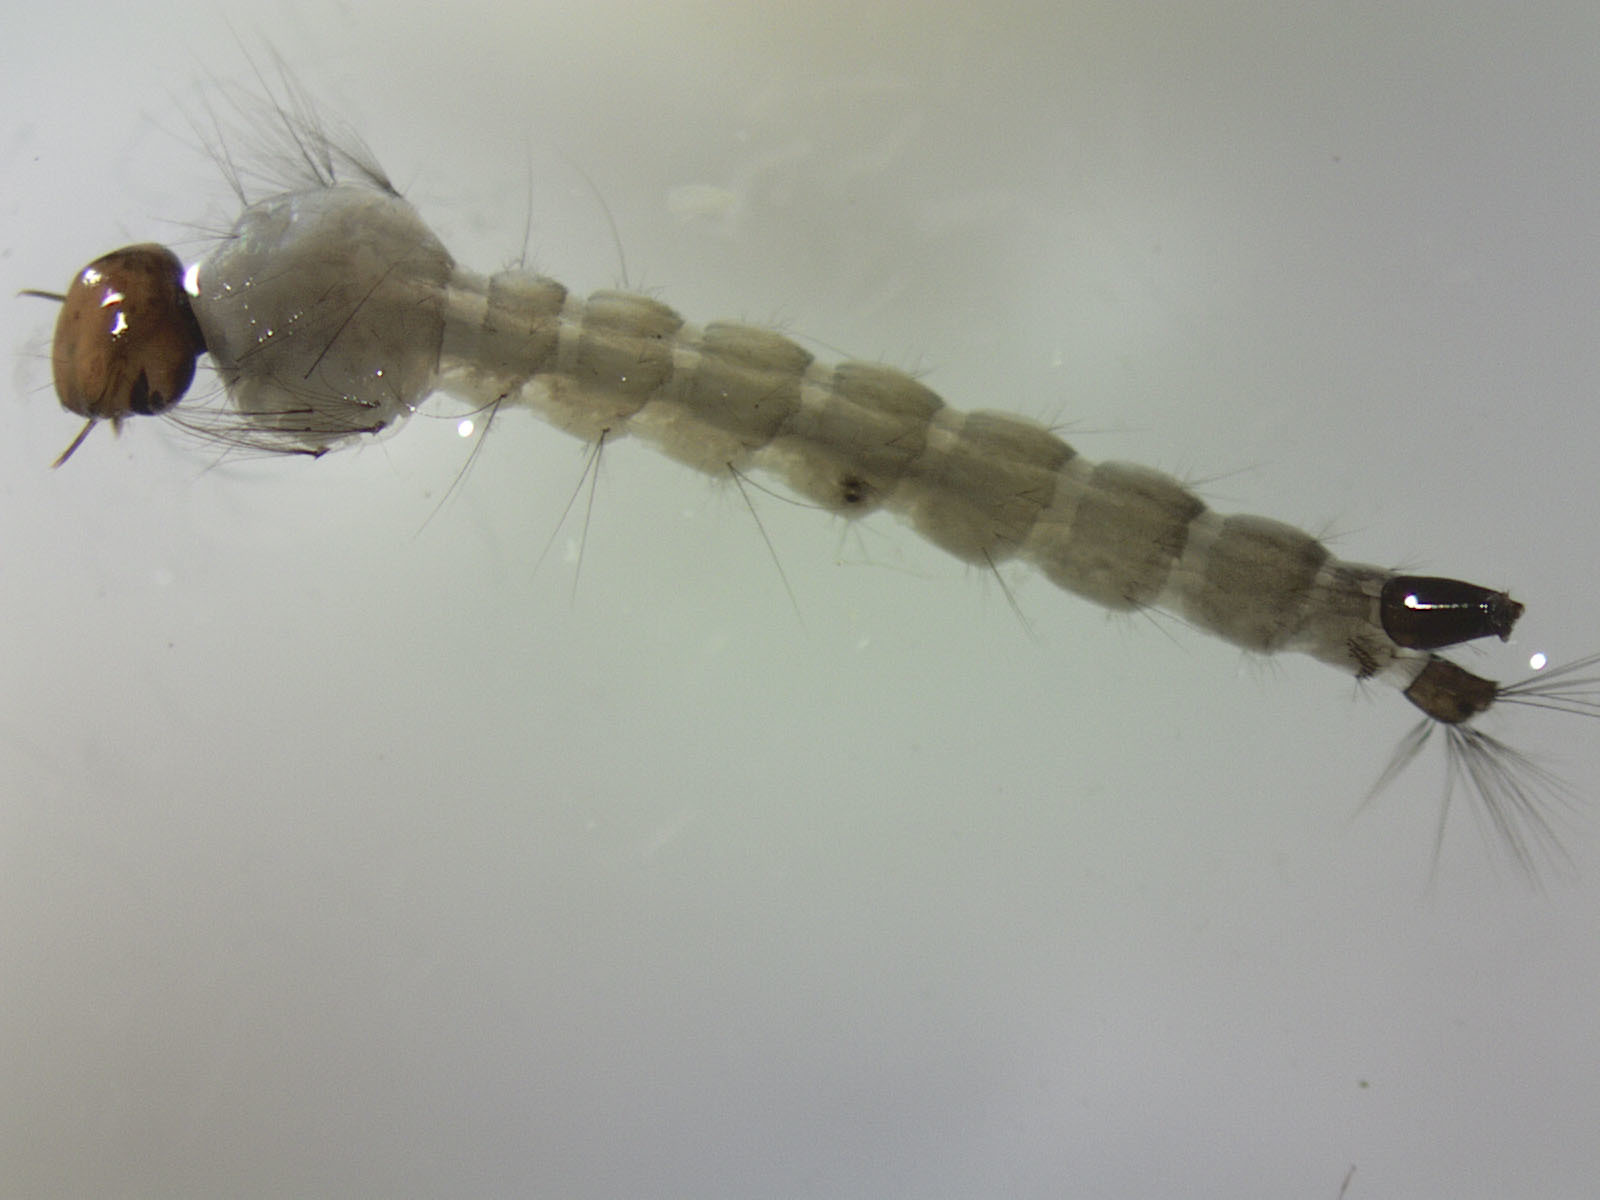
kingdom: Animalia
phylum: Arthropoda
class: Insecta
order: Diptera
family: Culicidae
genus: Aedes
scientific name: Aedes notoscriptus
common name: Australian backyard mosquito
